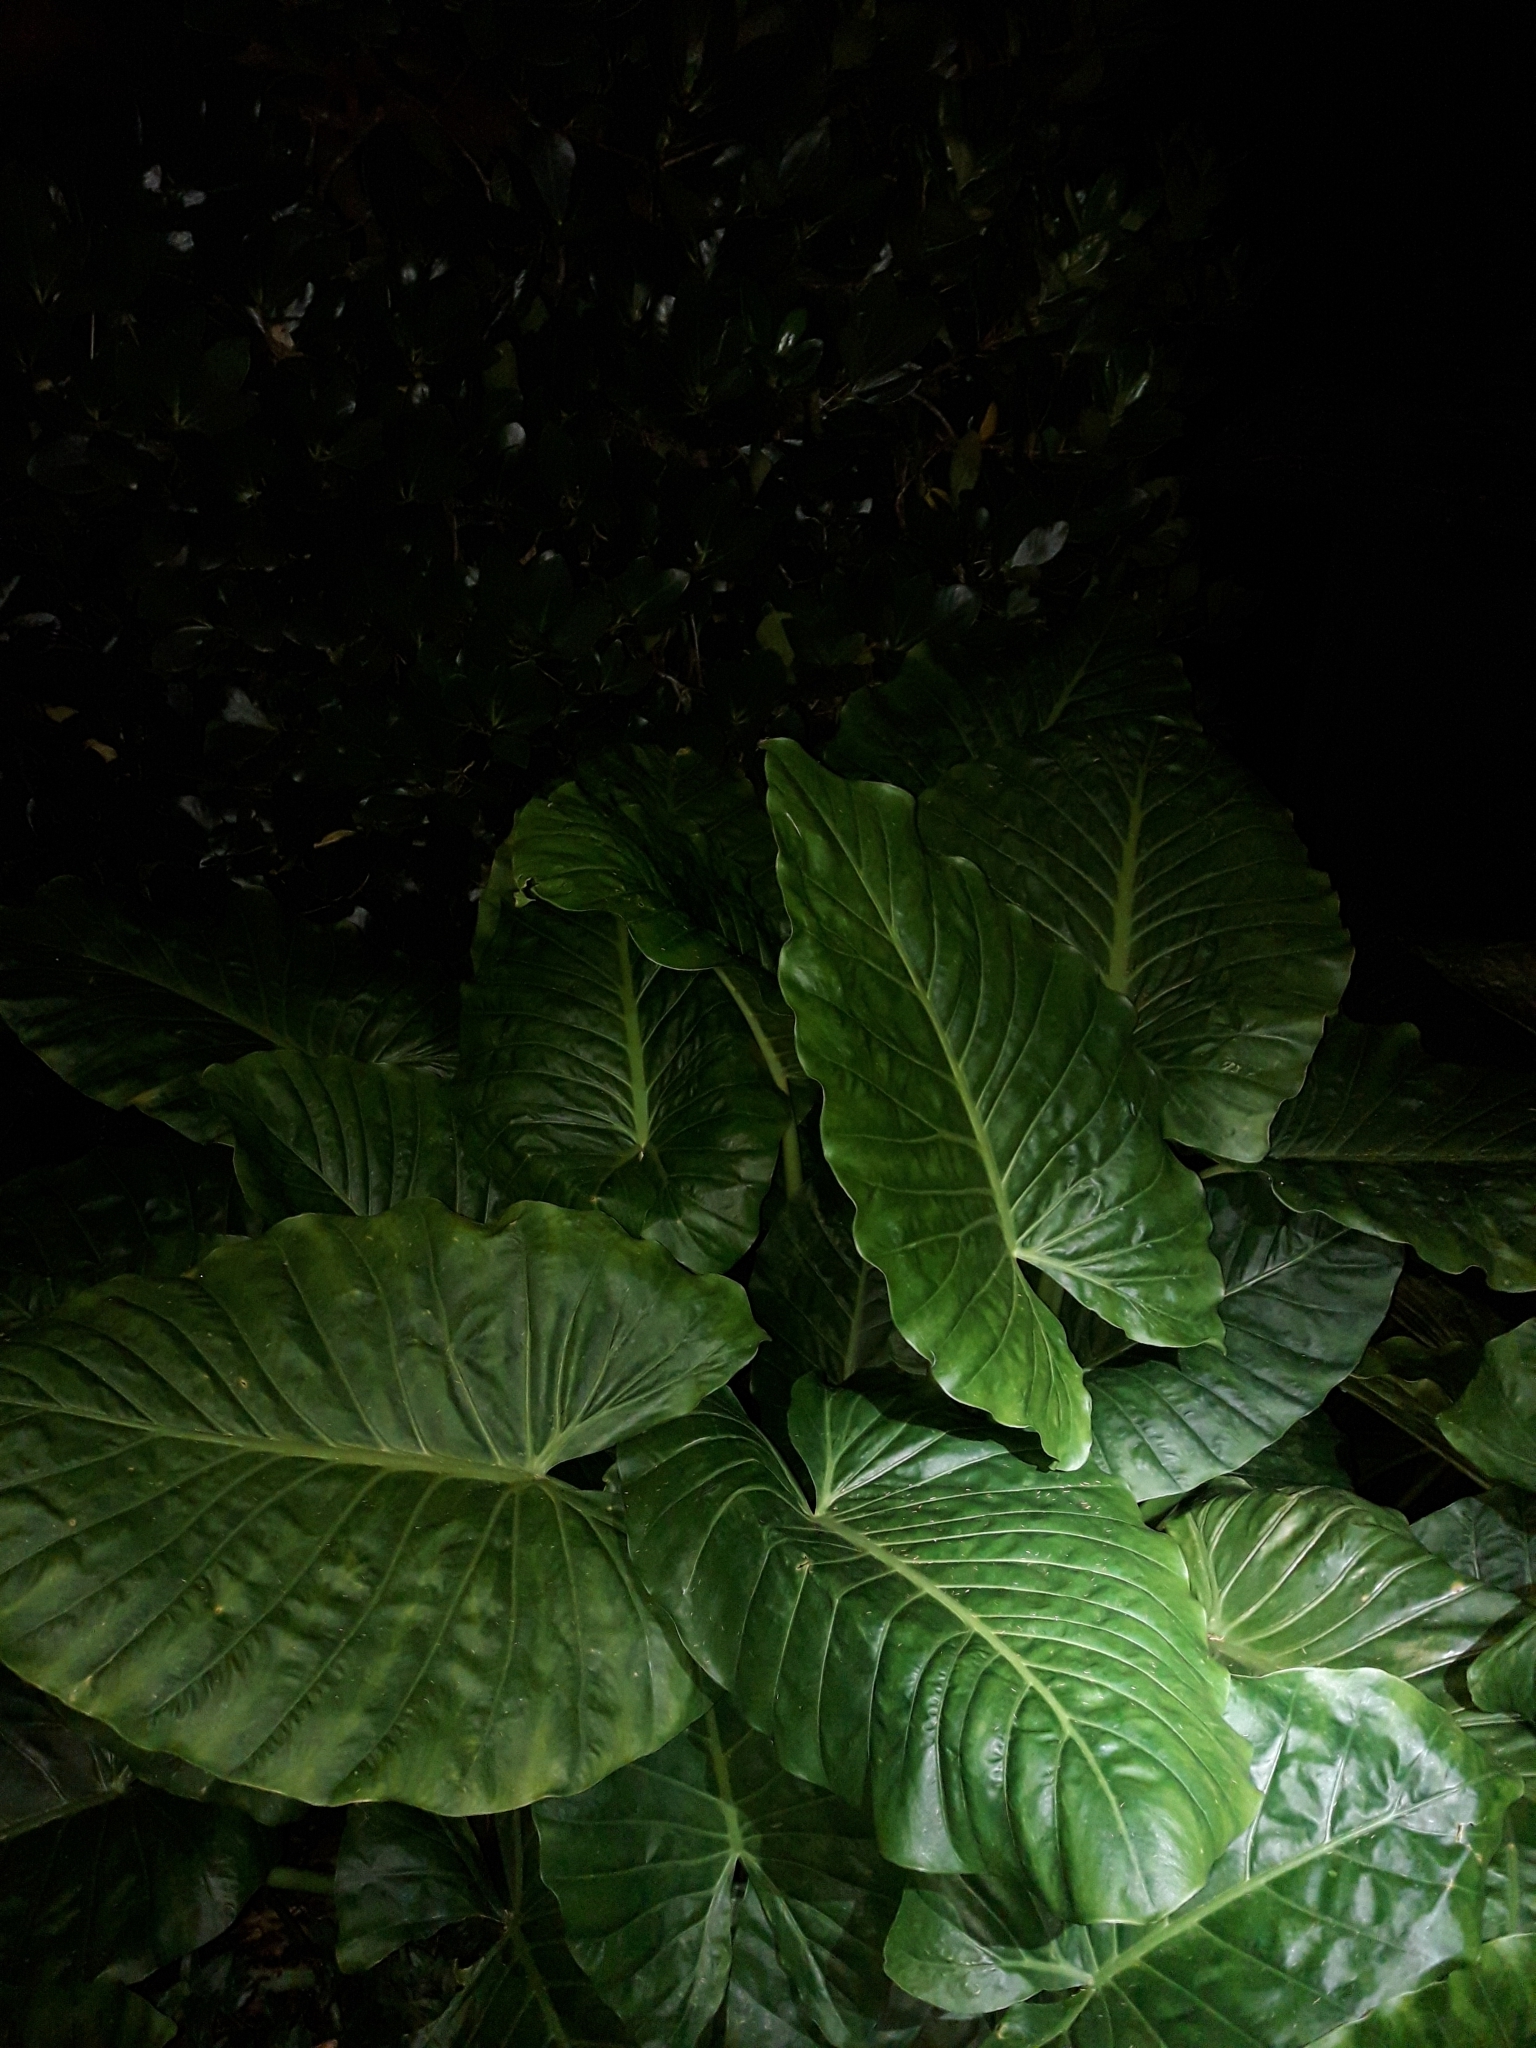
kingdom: Plantae
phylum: Tracheophyta
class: Liliopsida
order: Alismatales
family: Araceae
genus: Alocasia
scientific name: Alocasia brisbanensis
